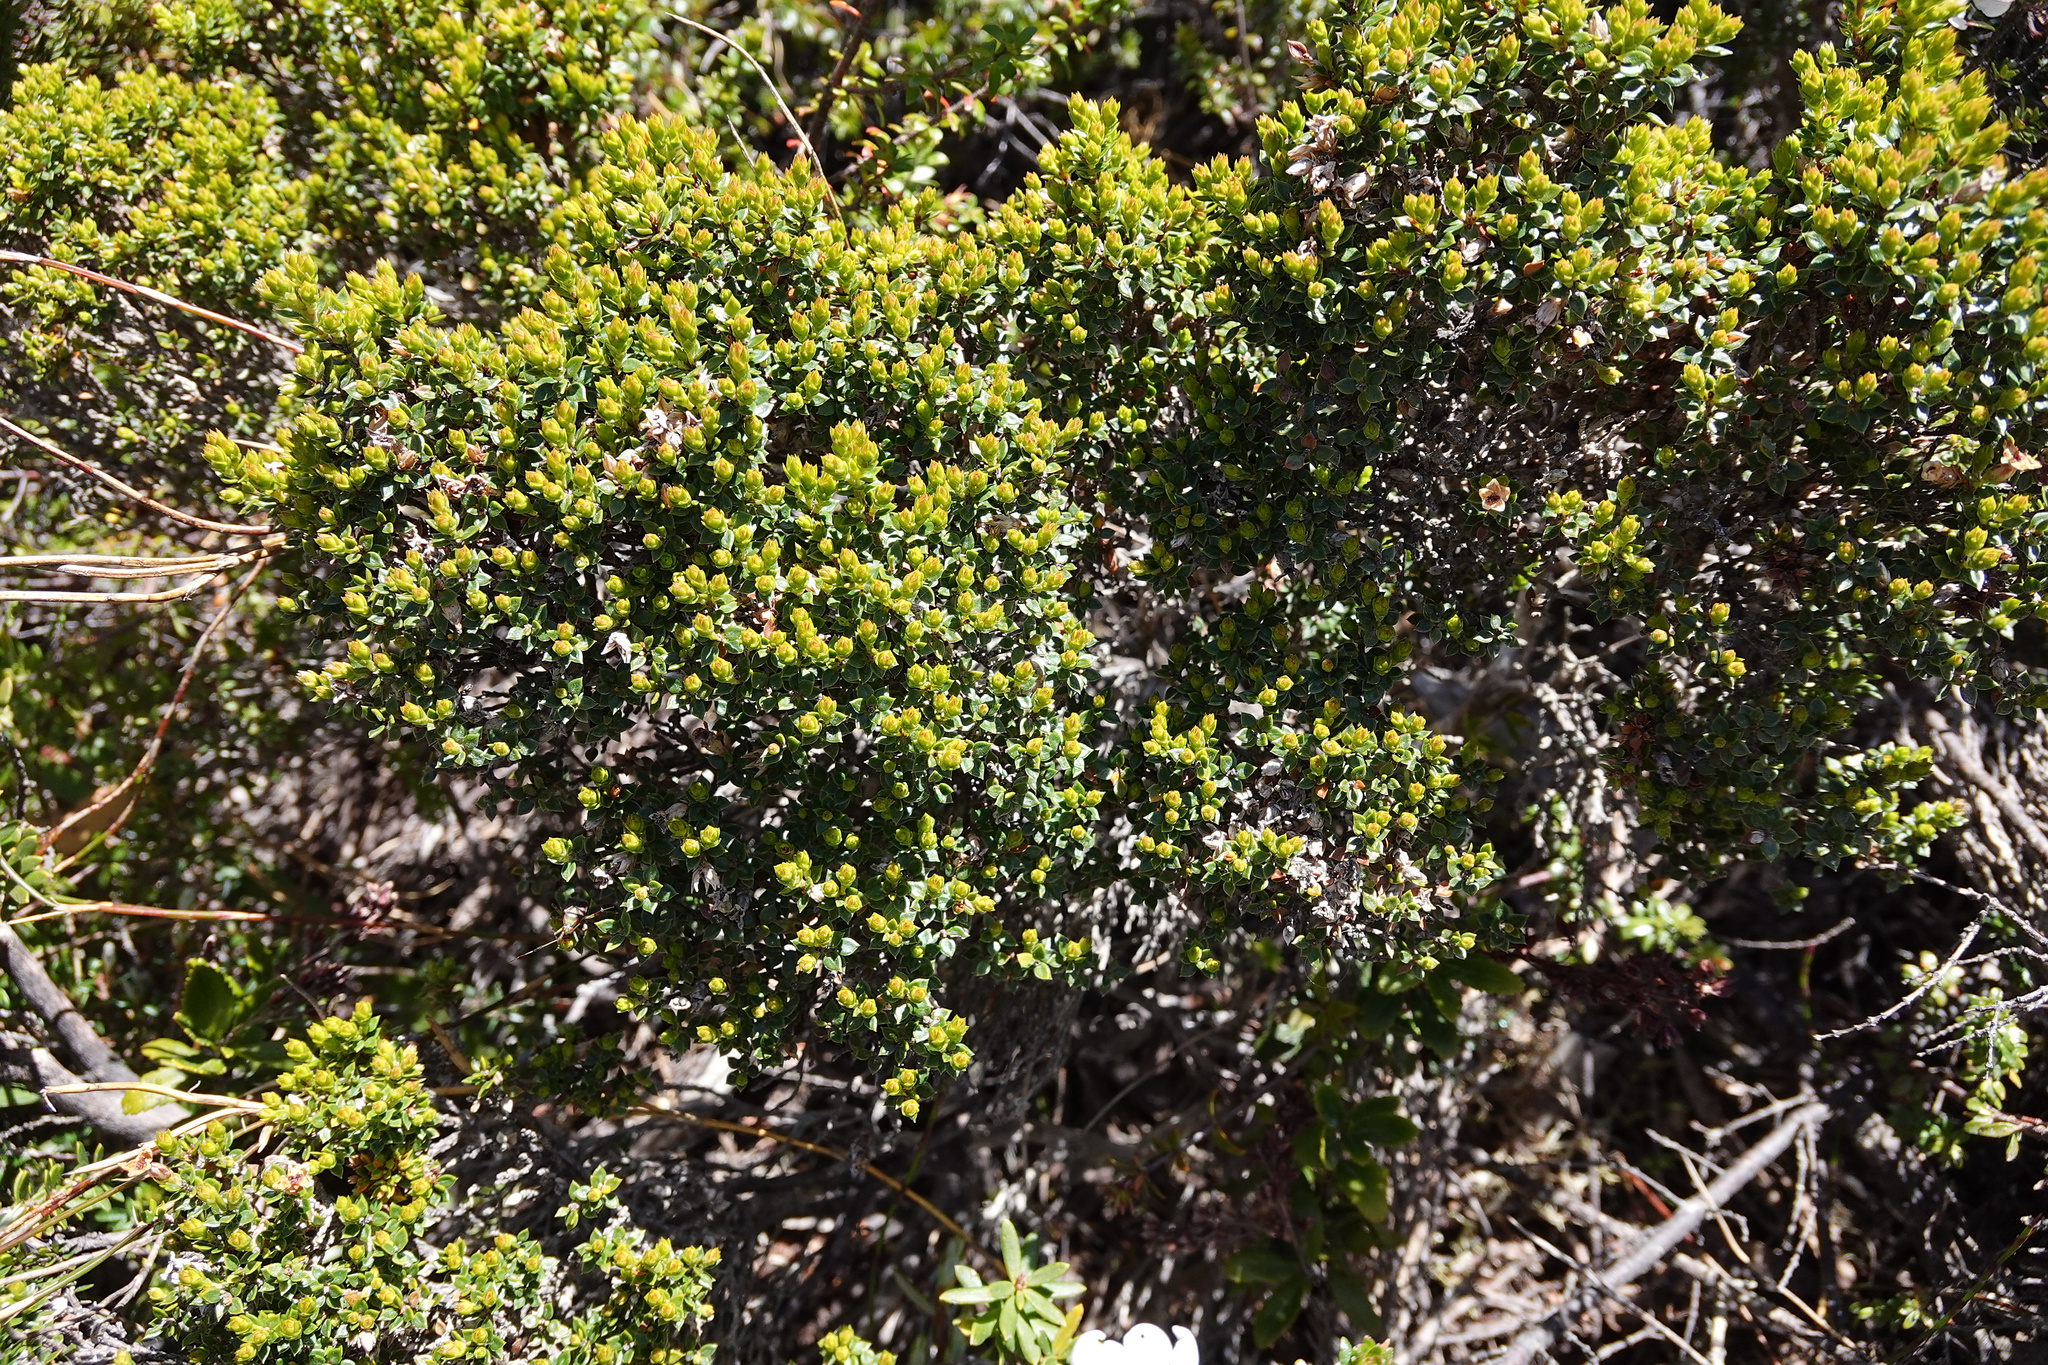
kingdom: Plantae
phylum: Tracheophyta
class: Magnoliopsida
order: Ericales
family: Ericaceae
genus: Epacris
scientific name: Epacris serpyllifolia
